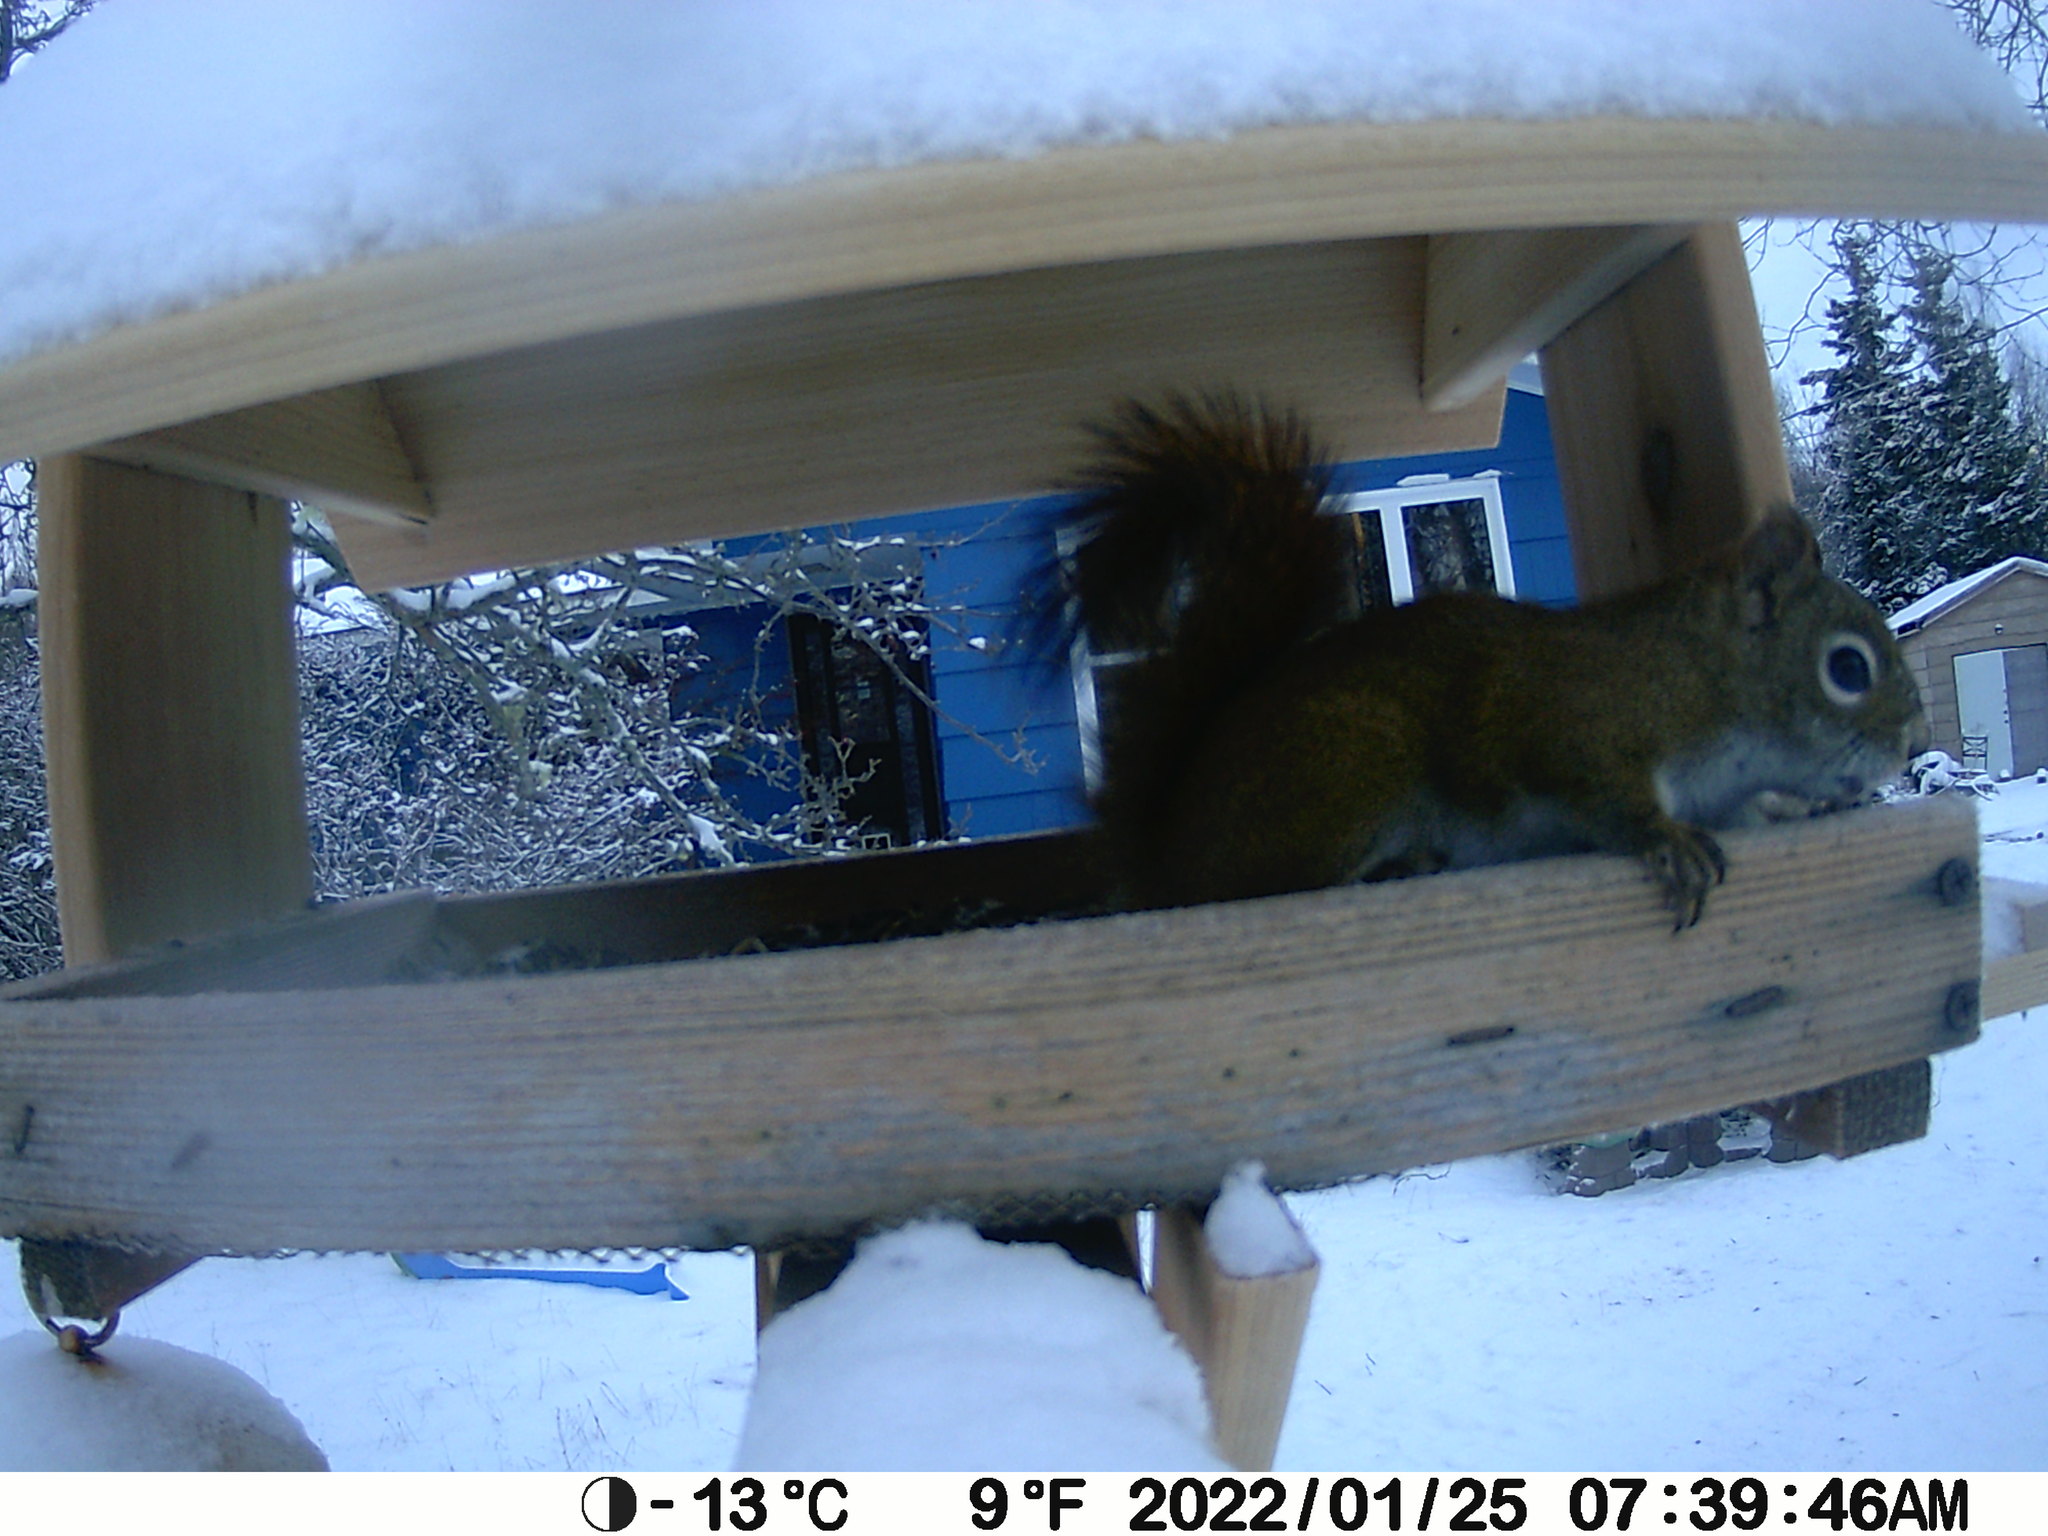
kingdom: Animalia
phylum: Chordata
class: Mammalia
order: Rodentia
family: Sciuridae
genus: Tamiasciurus
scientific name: Tamiasciurus hudsonicus
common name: Red squirrel
